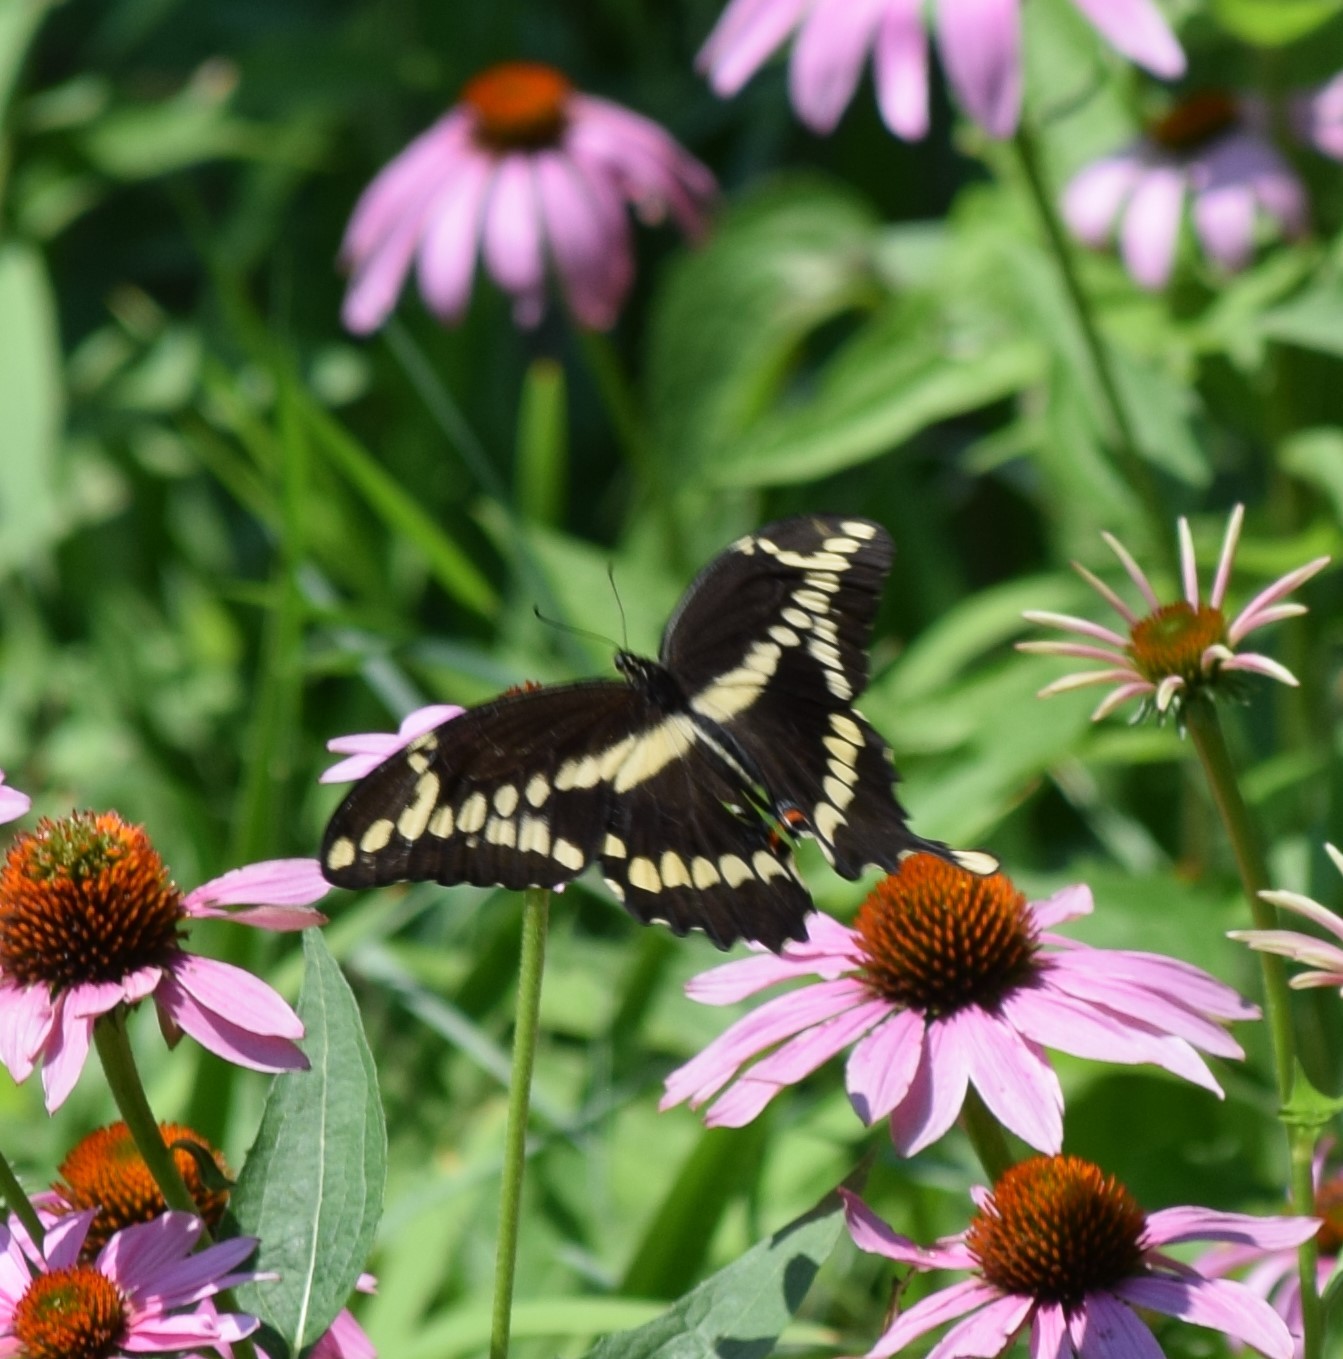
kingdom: Animalia
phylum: Arthropoda
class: Insecta
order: Lepidoptera
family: Papilionidae
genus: Papilio
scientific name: Papilio cresphontes
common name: Giant swallowtail
